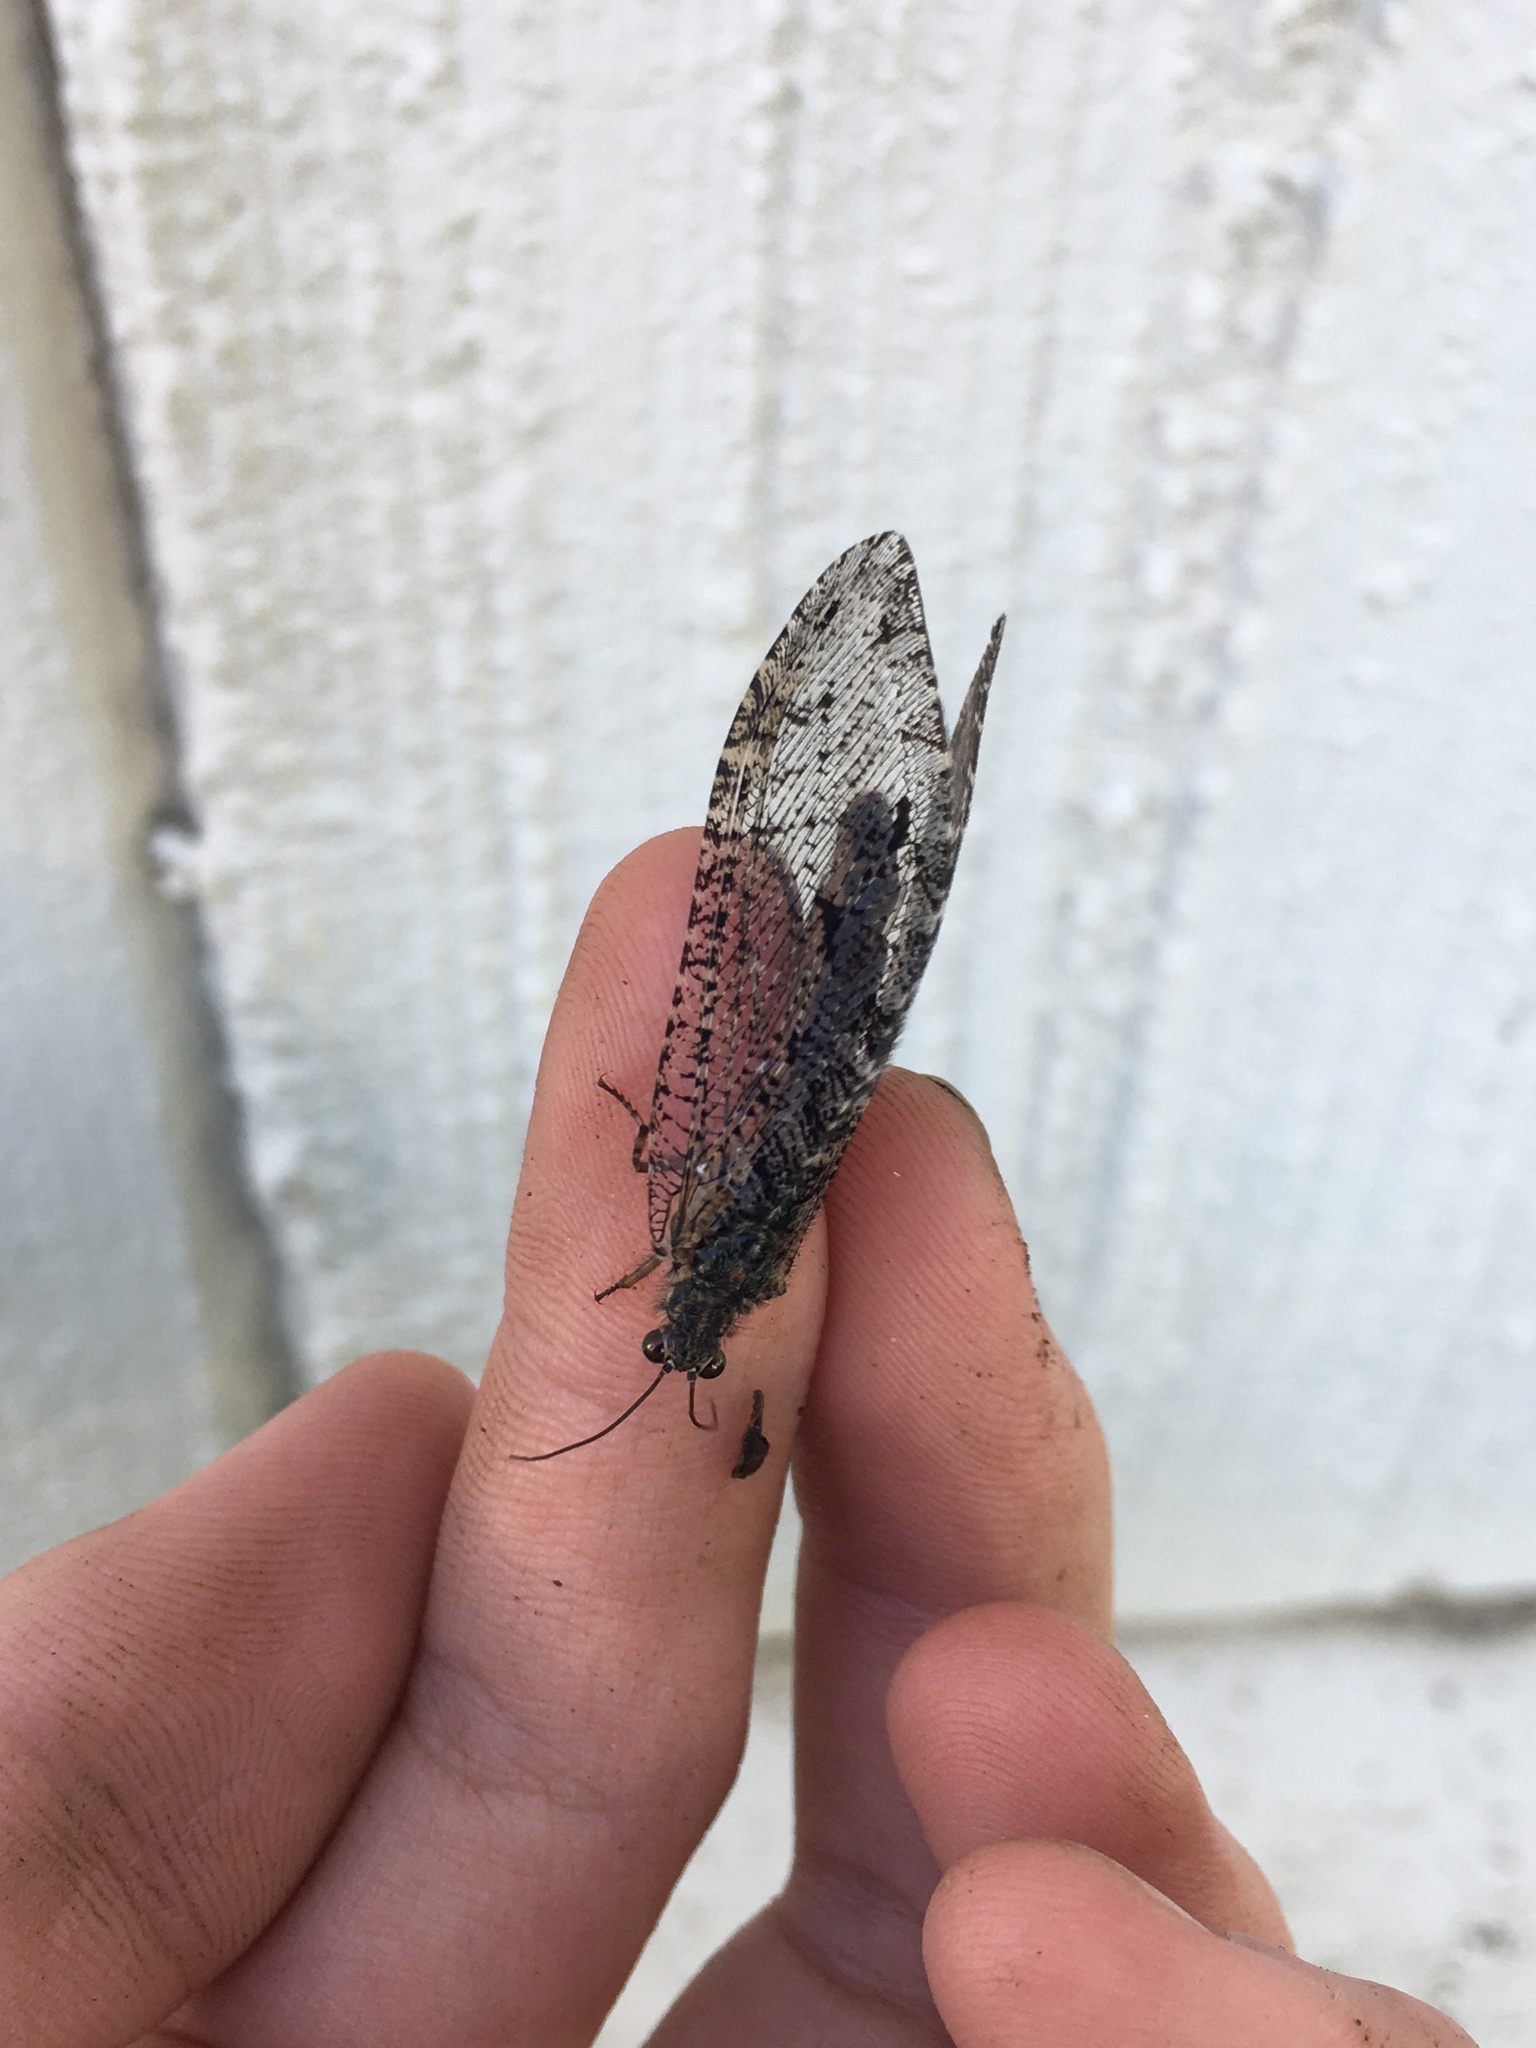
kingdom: Animalia
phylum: Arthropoda
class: Insecta
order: Neuroptera
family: Ithonidae
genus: Polystoechotes
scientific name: Polystoechotes punctata
